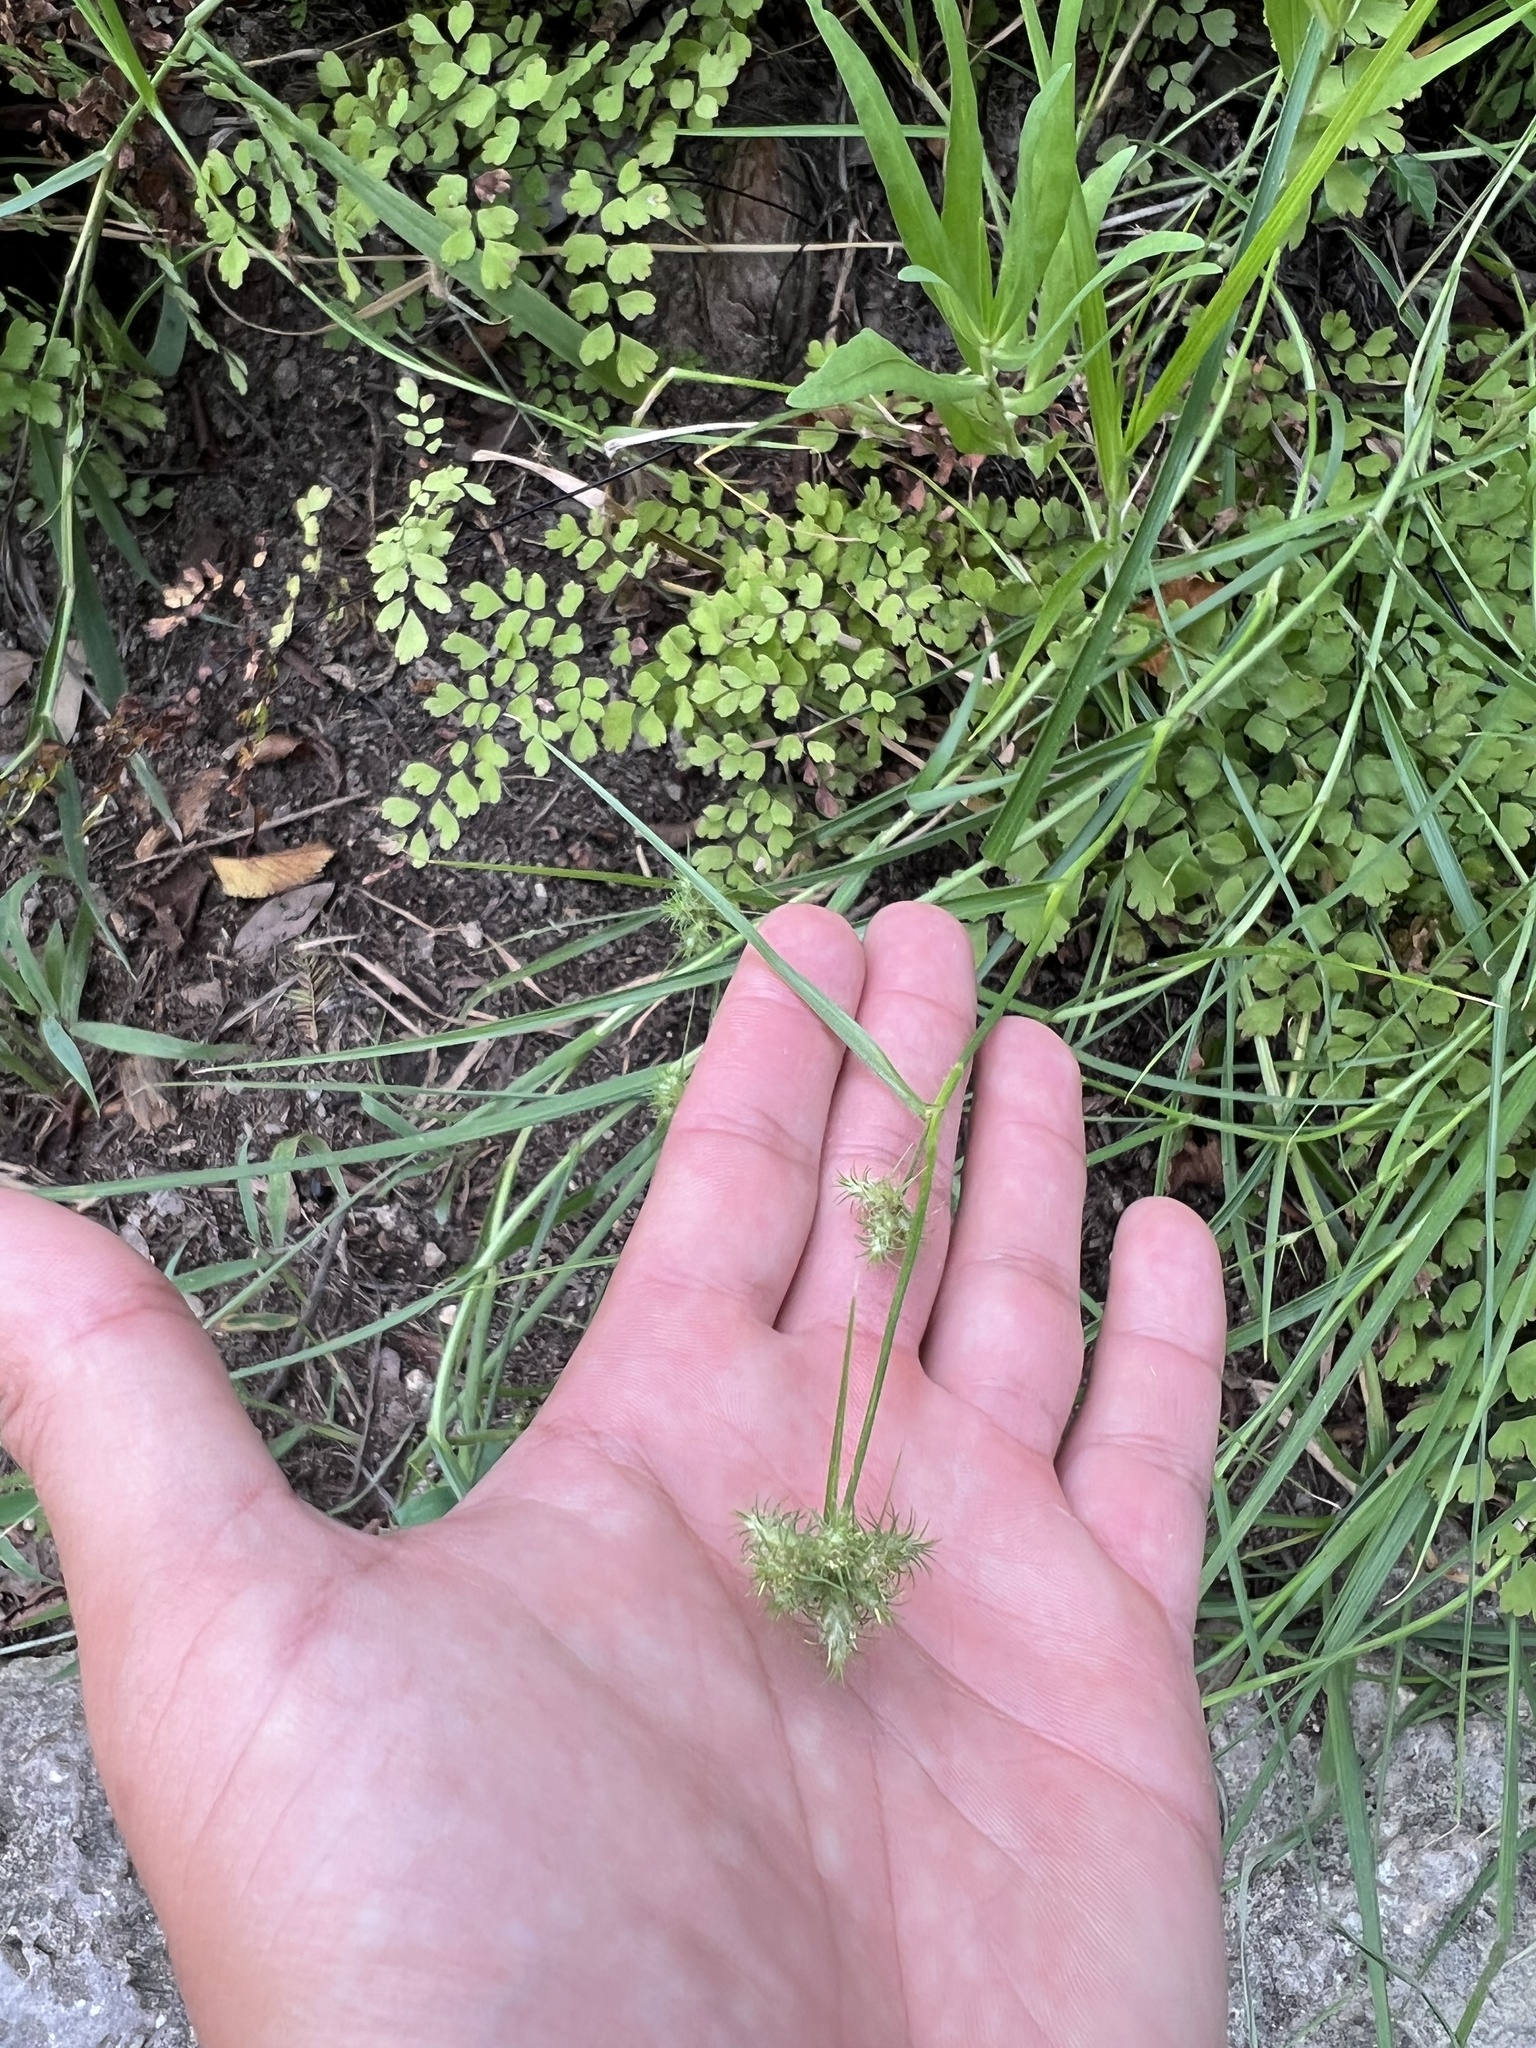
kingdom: Plantae
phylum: Tracheophyta
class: Liliopsida
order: Poales
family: Cyperaceae
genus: Fuirena
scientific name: Fuirena simplex
